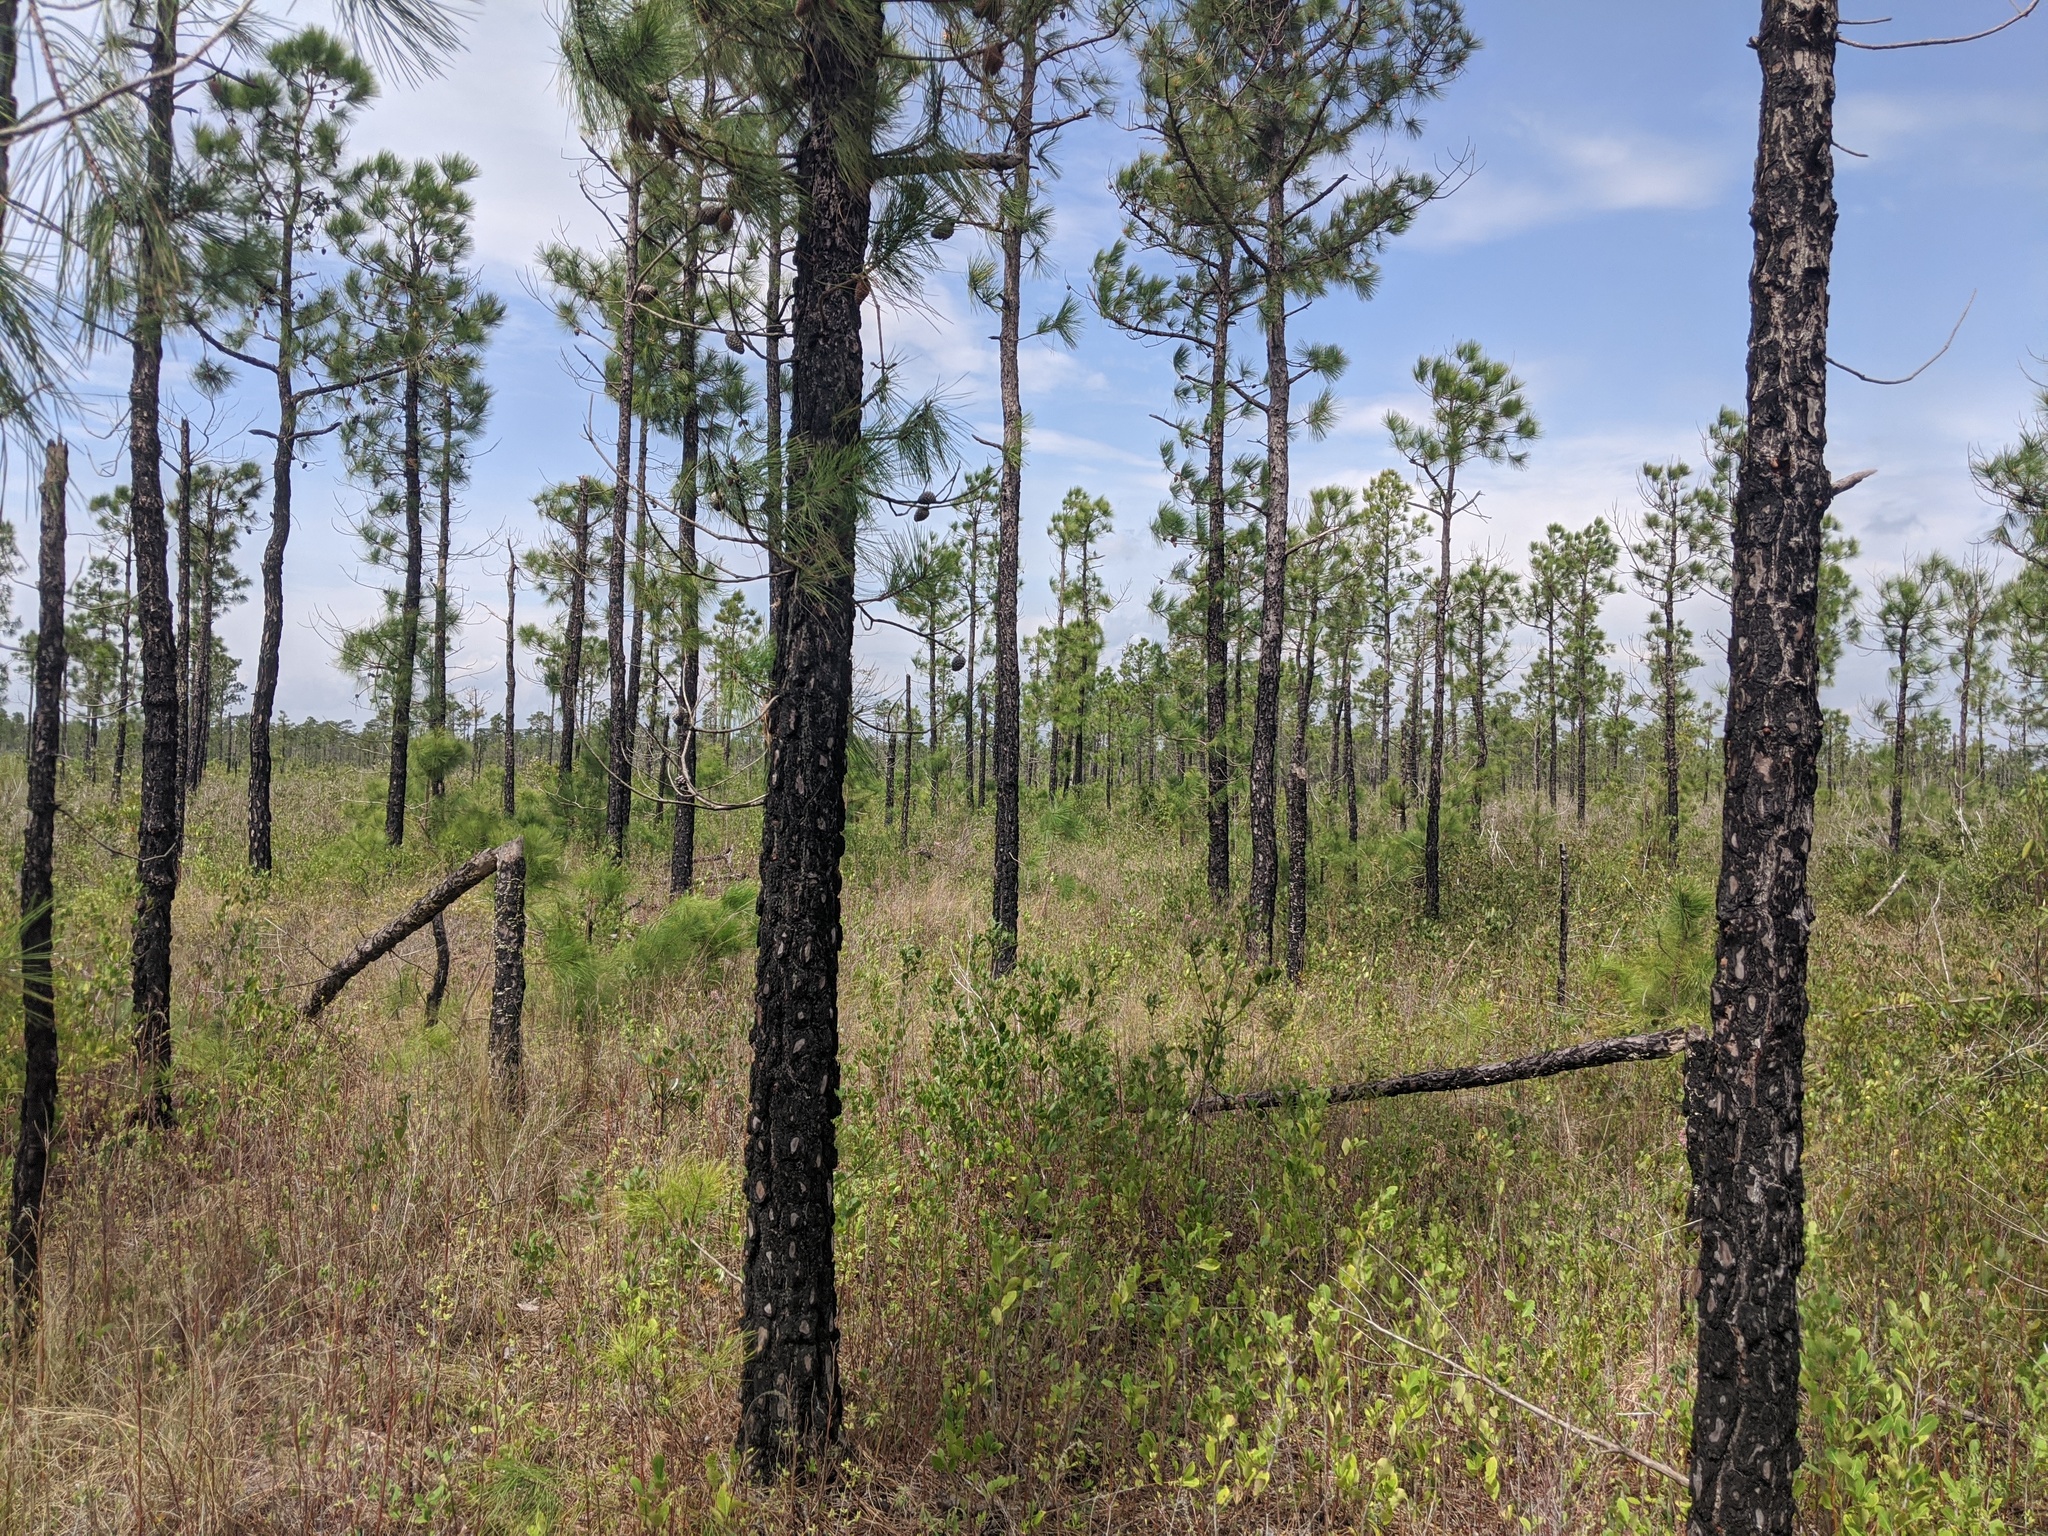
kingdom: Plantae
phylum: Tracheophyta
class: Pinopsida
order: Pinales
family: Pinaceae
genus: Pinus
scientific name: Pinus serotina
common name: Marsh pine
